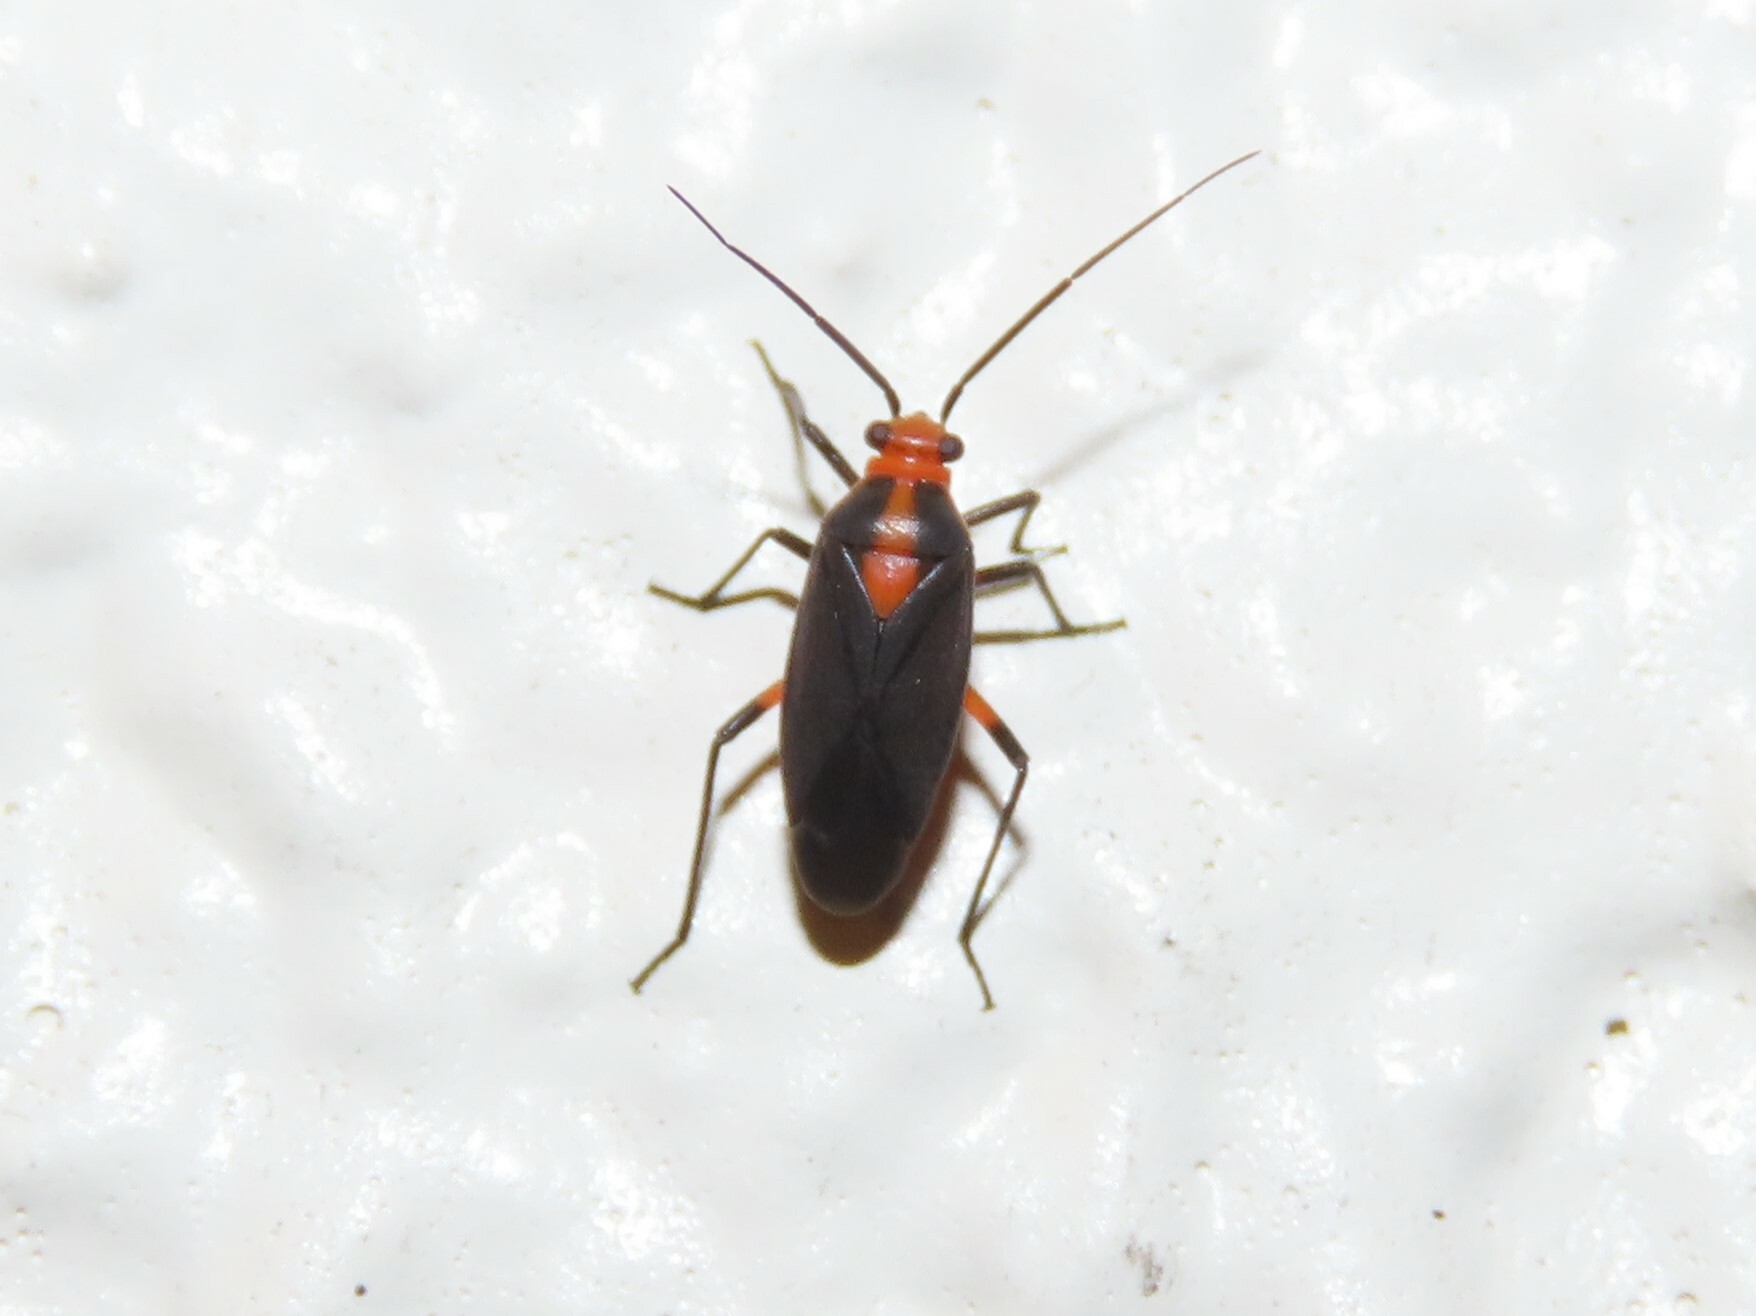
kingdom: Animalia
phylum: Arthropoda
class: Insecta
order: Hemiptera
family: Miridae
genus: Prepops
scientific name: Prepops rubrovittatus
